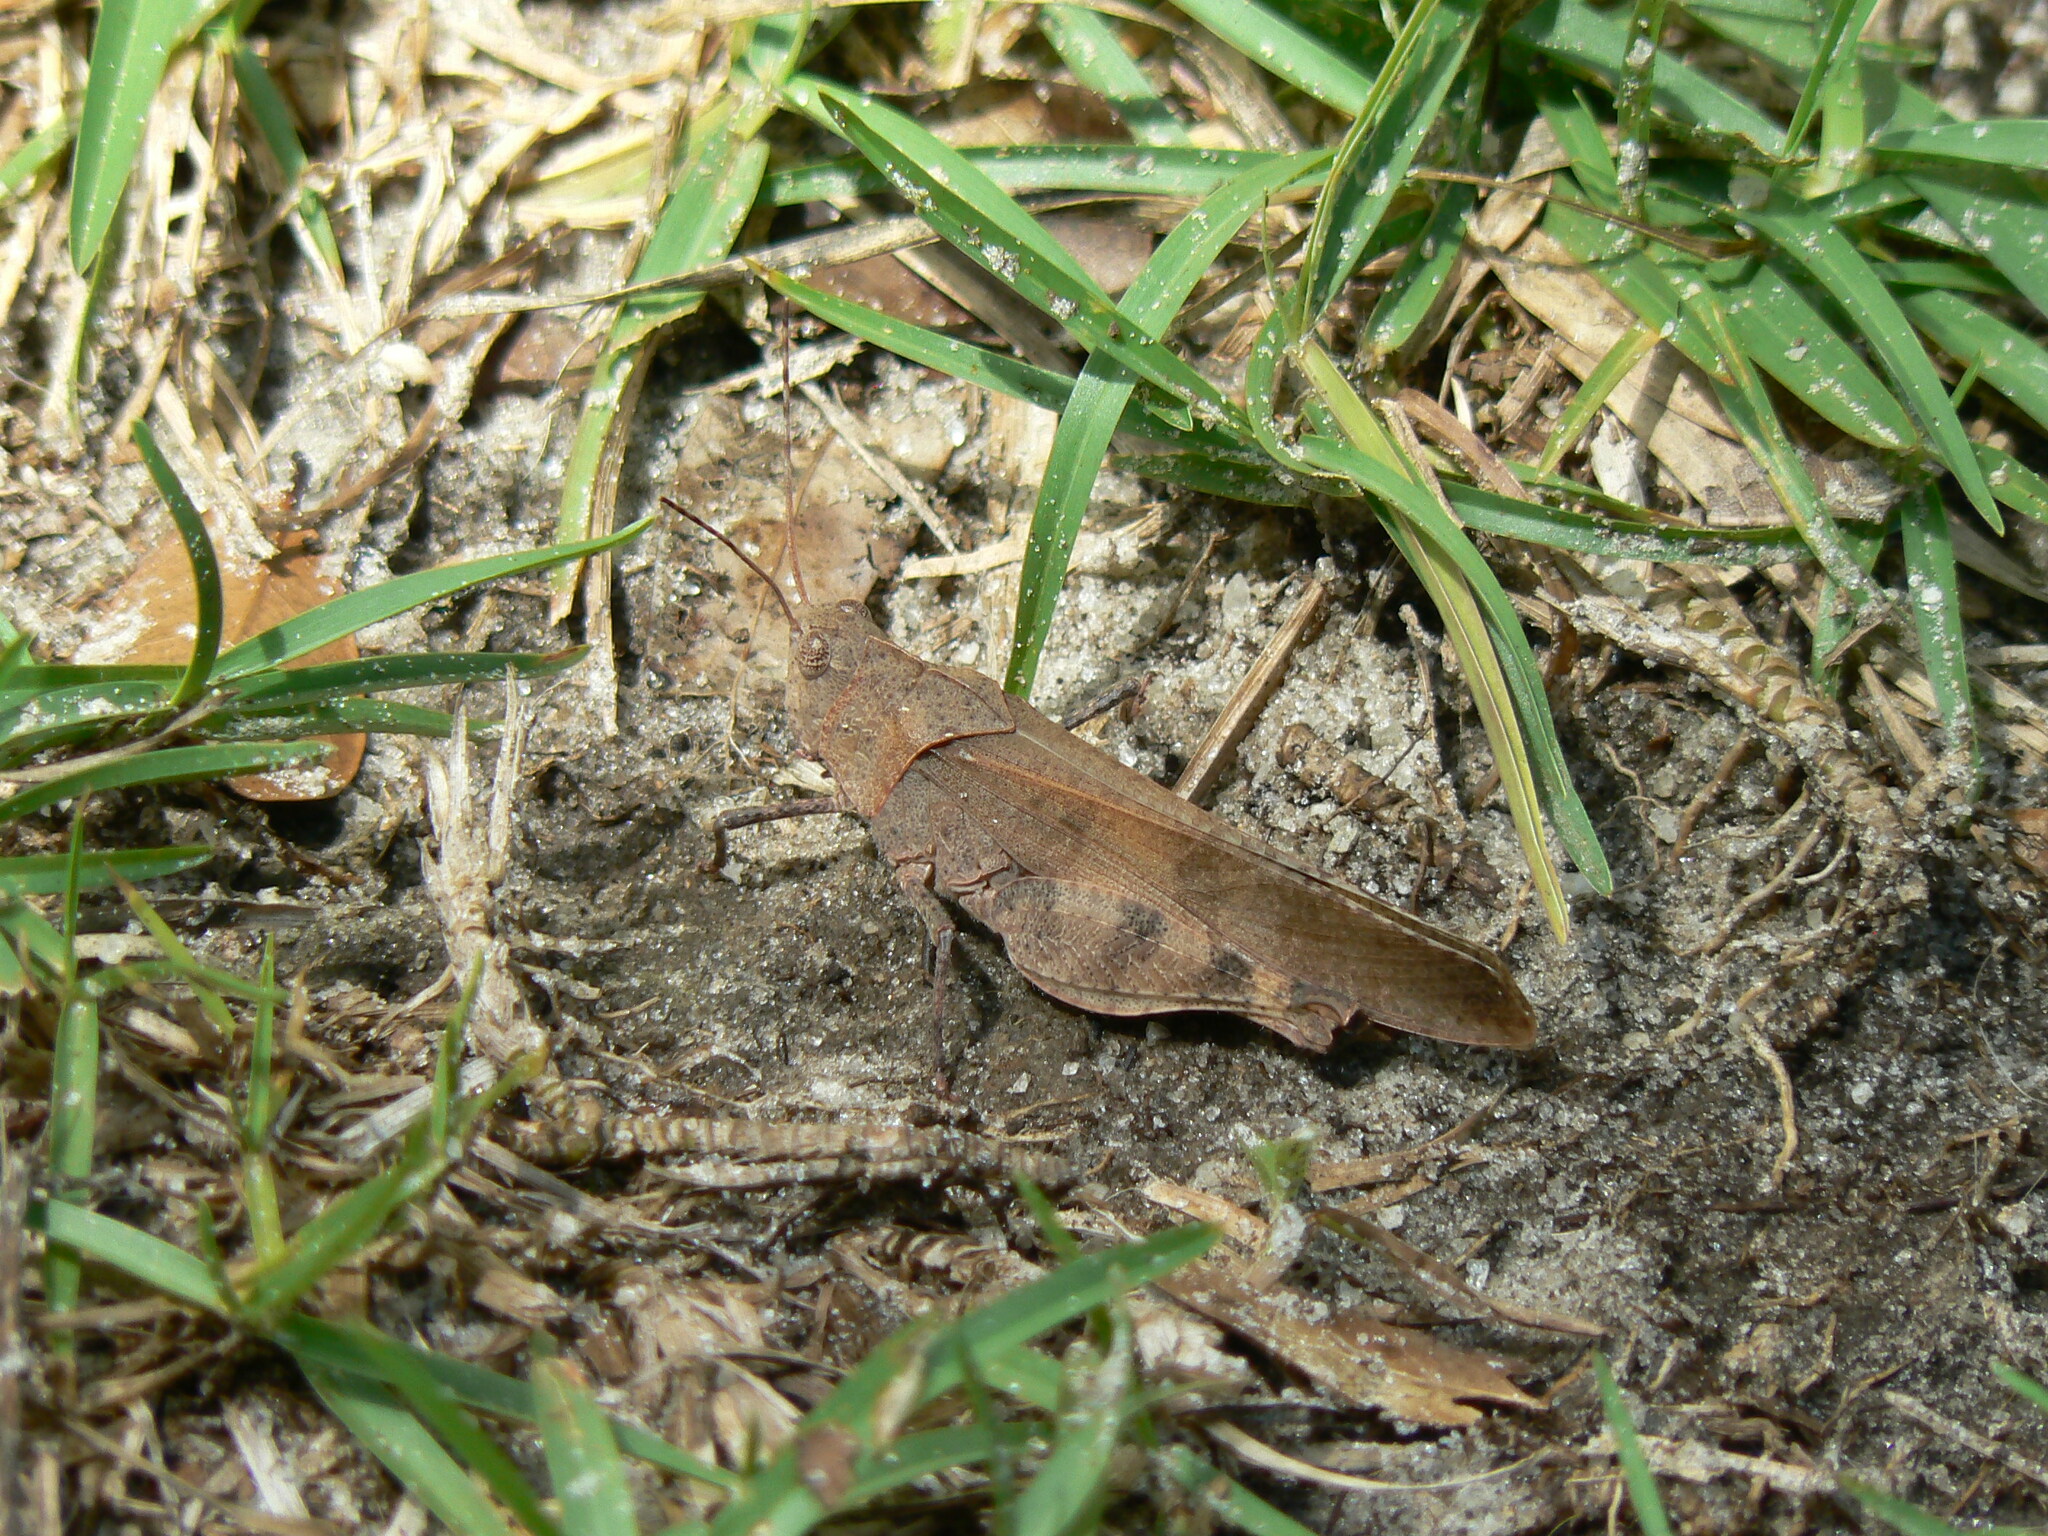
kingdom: Animalia
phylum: Arthropoda
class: Insecta
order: Orthoptera
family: Acrididae
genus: Spharagemon
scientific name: Spharagemon crepitans
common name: Crepitating grasshopper
